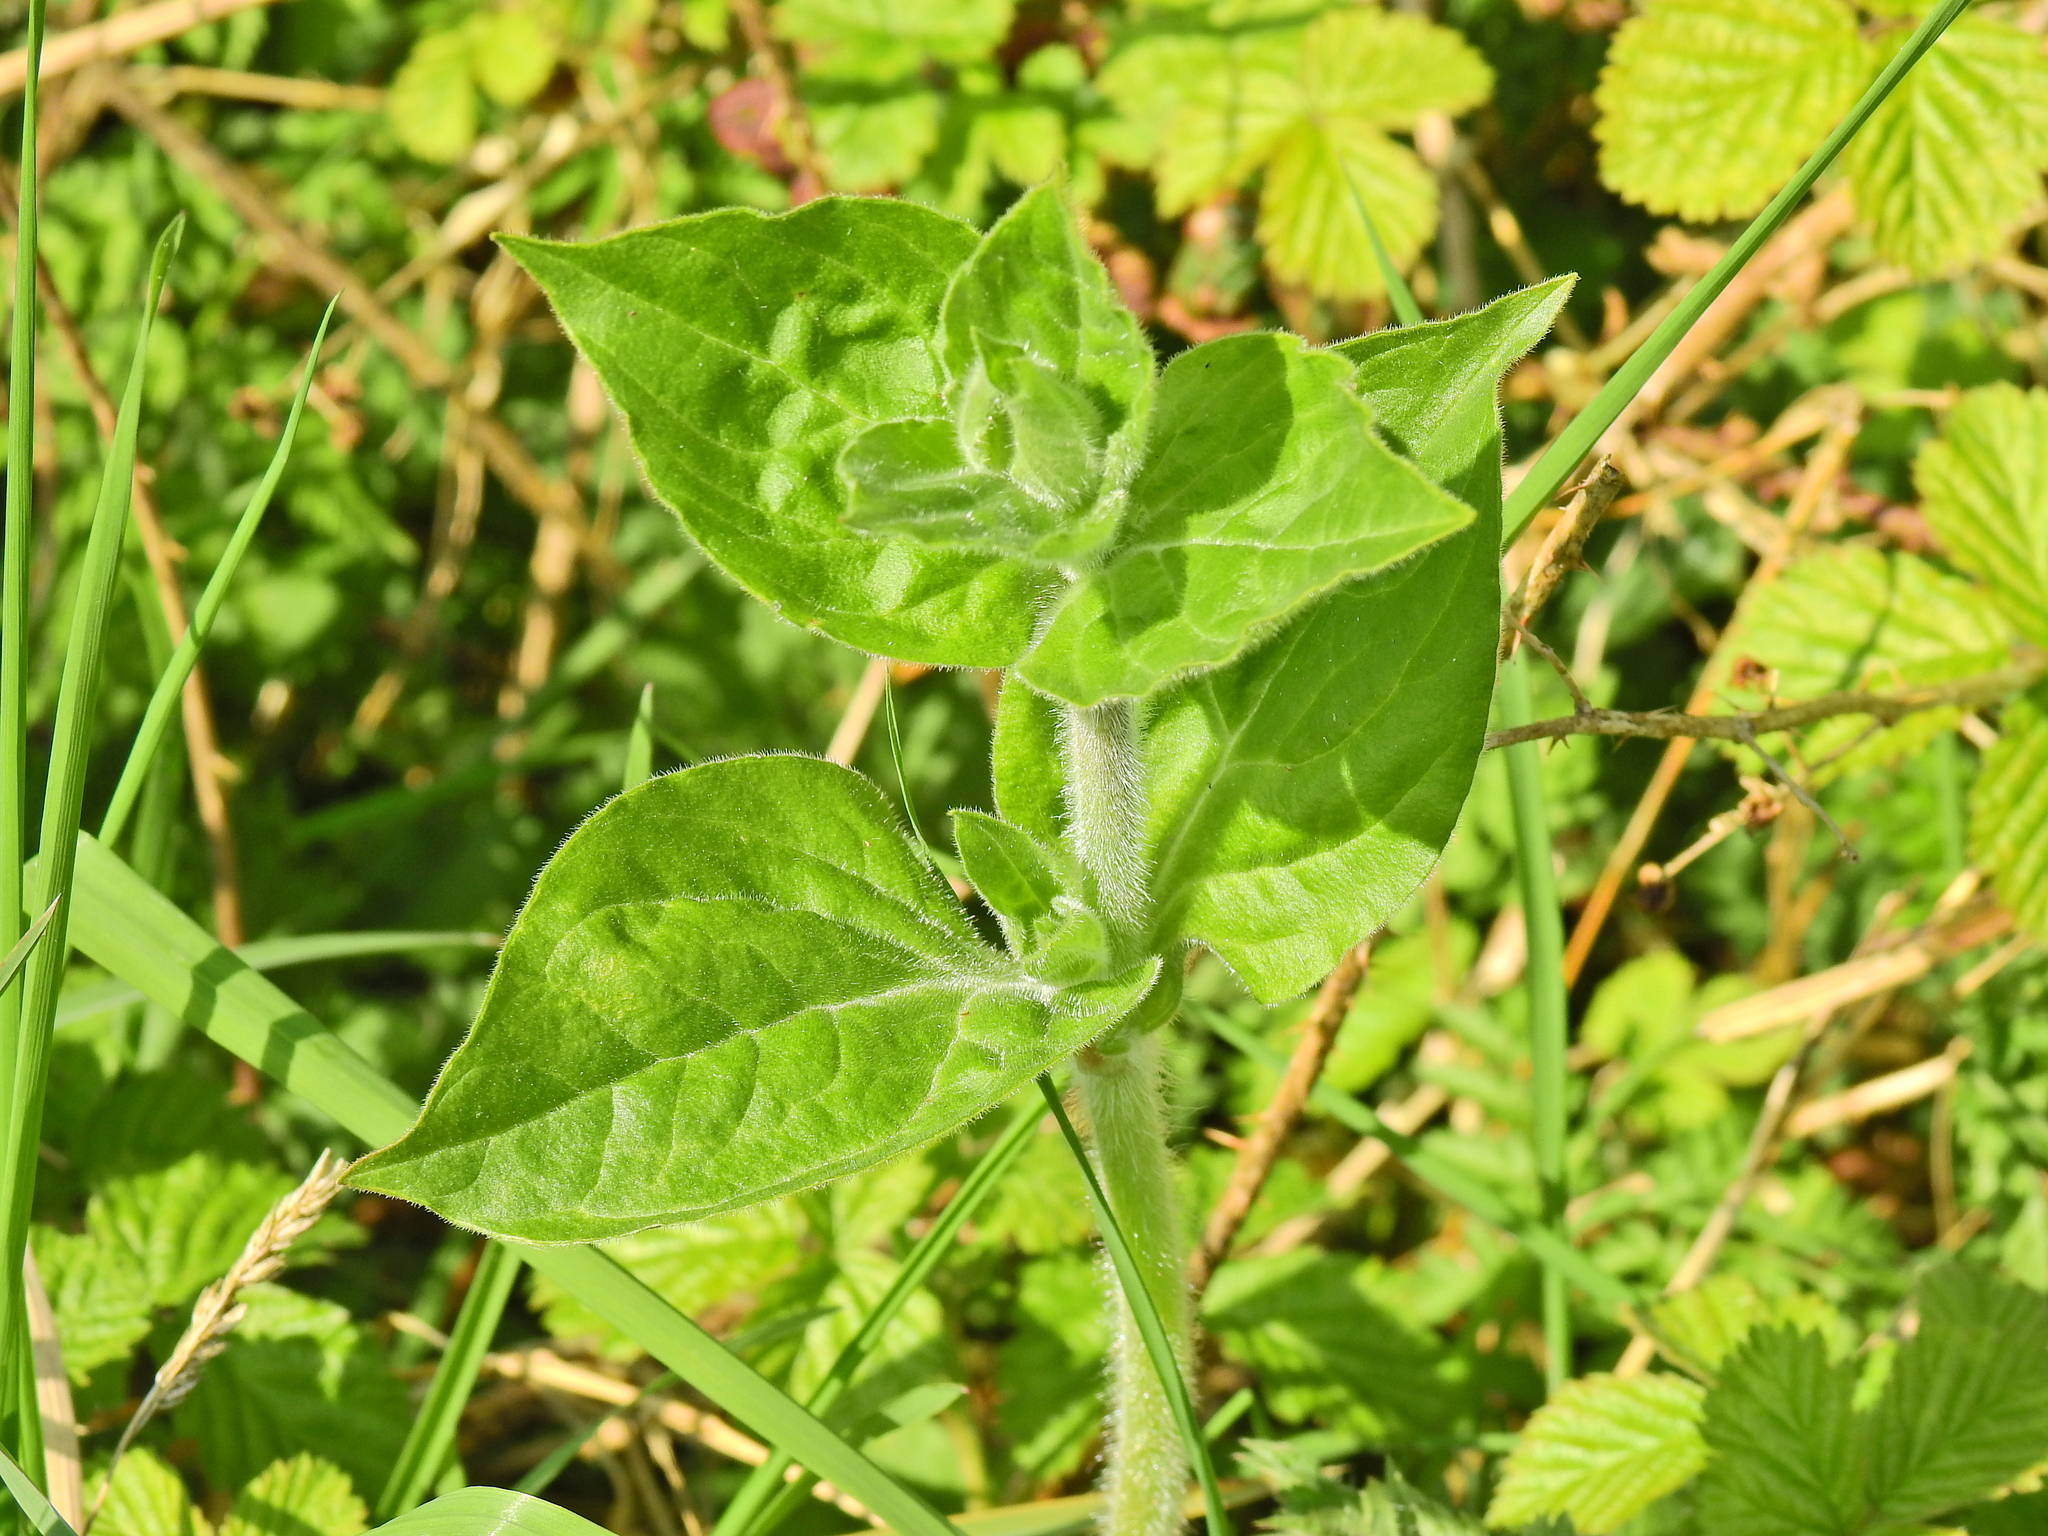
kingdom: Plantae
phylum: Tracheophyta
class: Magnoliopsida
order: Caryophyllales
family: Caryophyllaceae
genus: Silene
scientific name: Silene dioica
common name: Red campion
